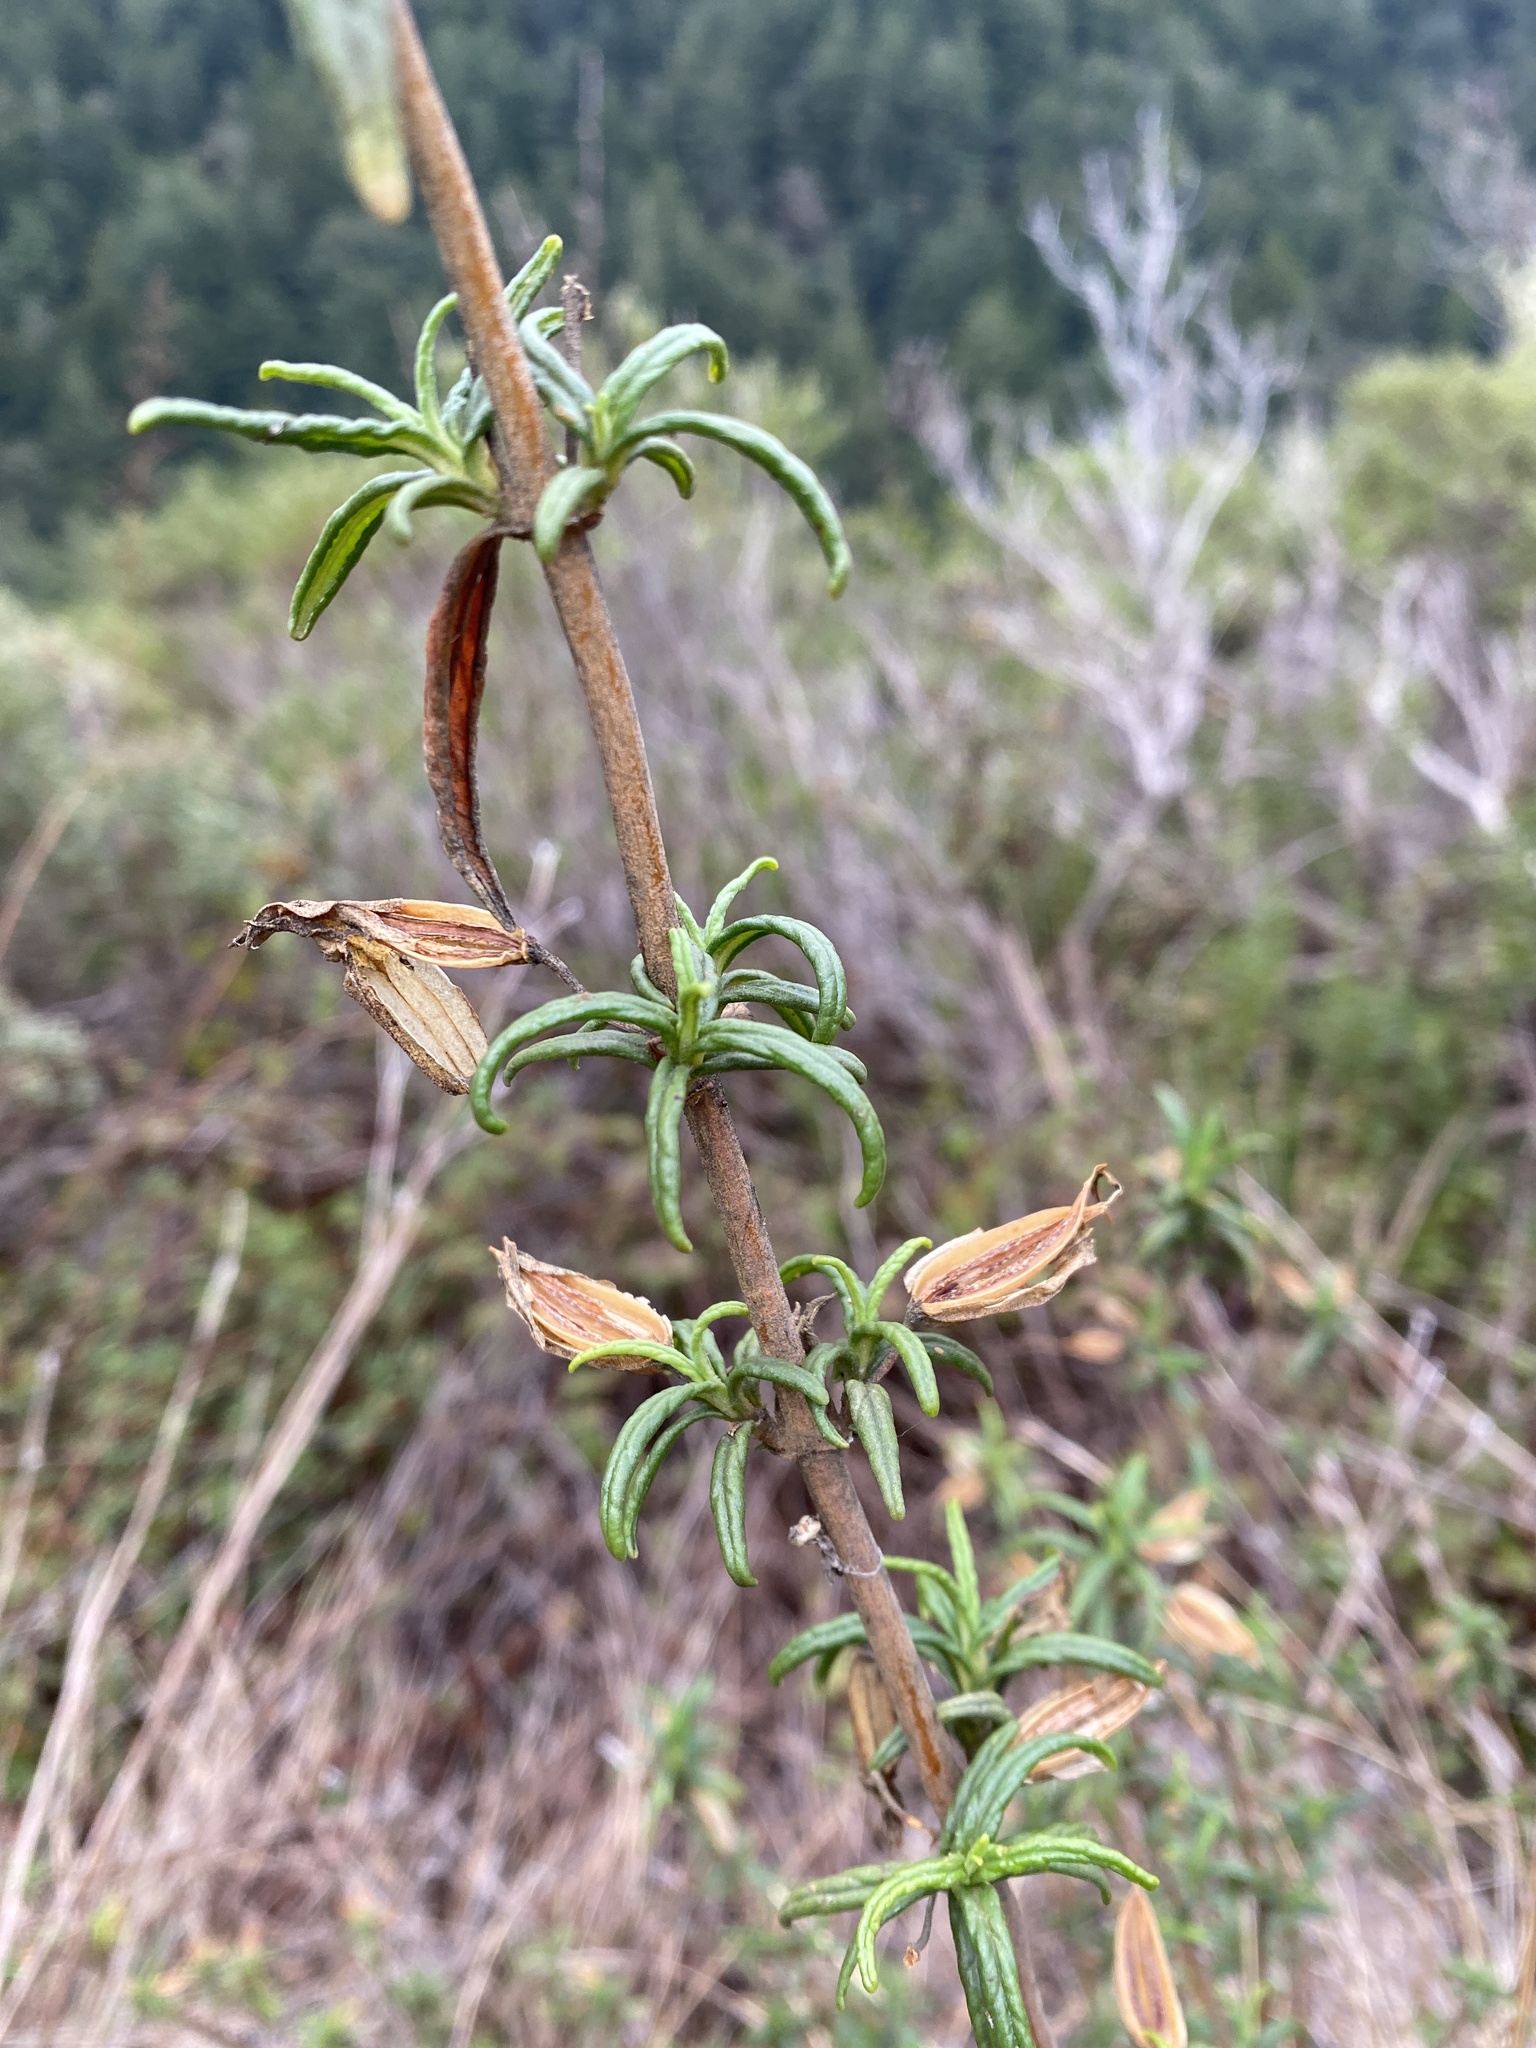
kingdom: Plantae
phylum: Tracheophyta
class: Magnoliopsida
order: Lamiales
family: Phrymaceae
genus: Diplacus
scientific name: Diplacus aurantiacus
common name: Bush monkey-flower
